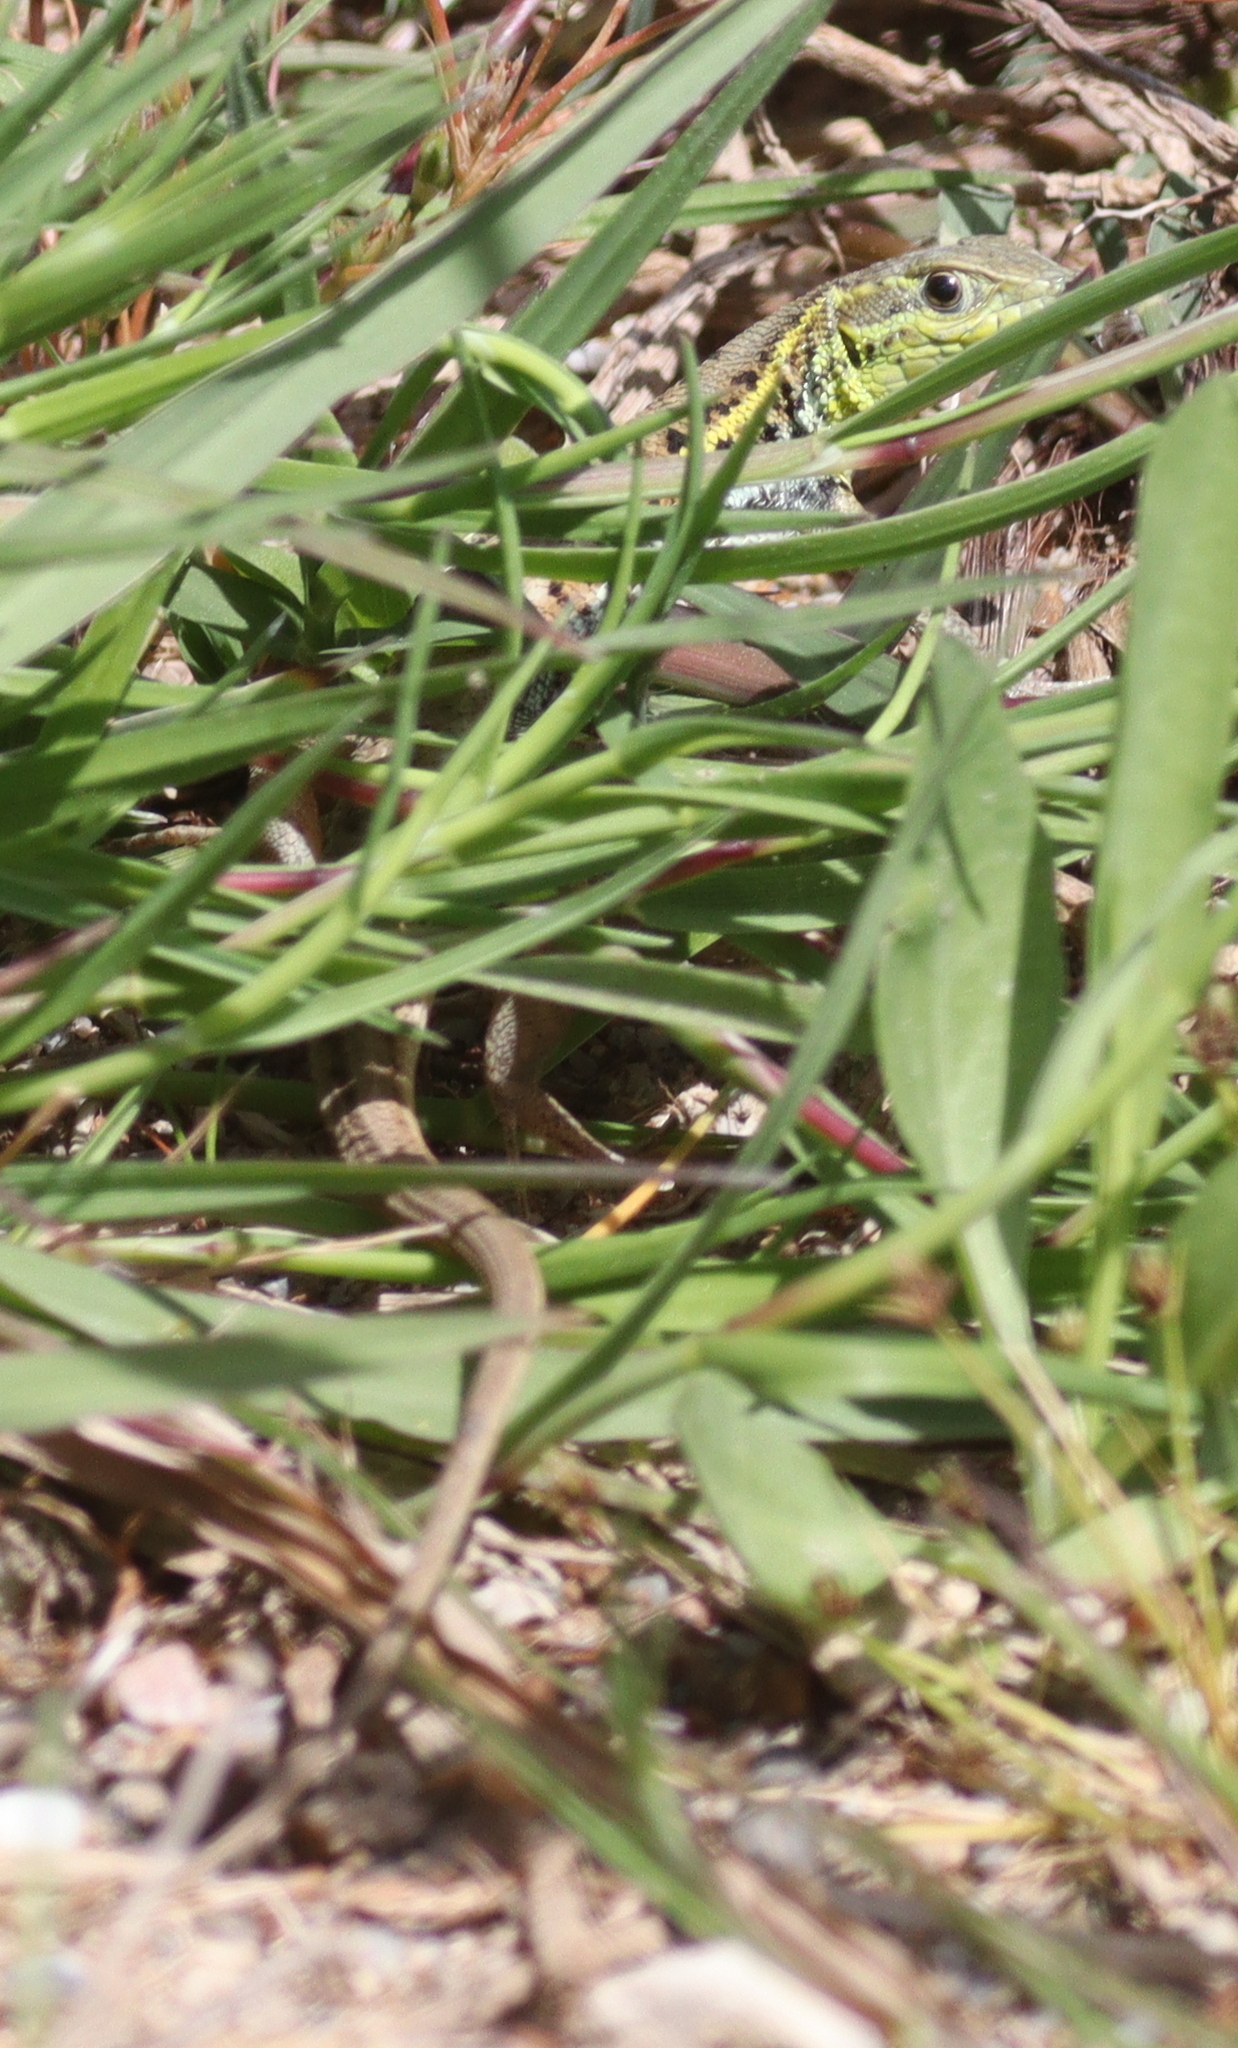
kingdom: Animalia
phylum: Chordata
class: Squamata
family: Lacertidae
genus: Ophisops
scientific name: Ophisops elegans
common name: Snake-eyed lizard
